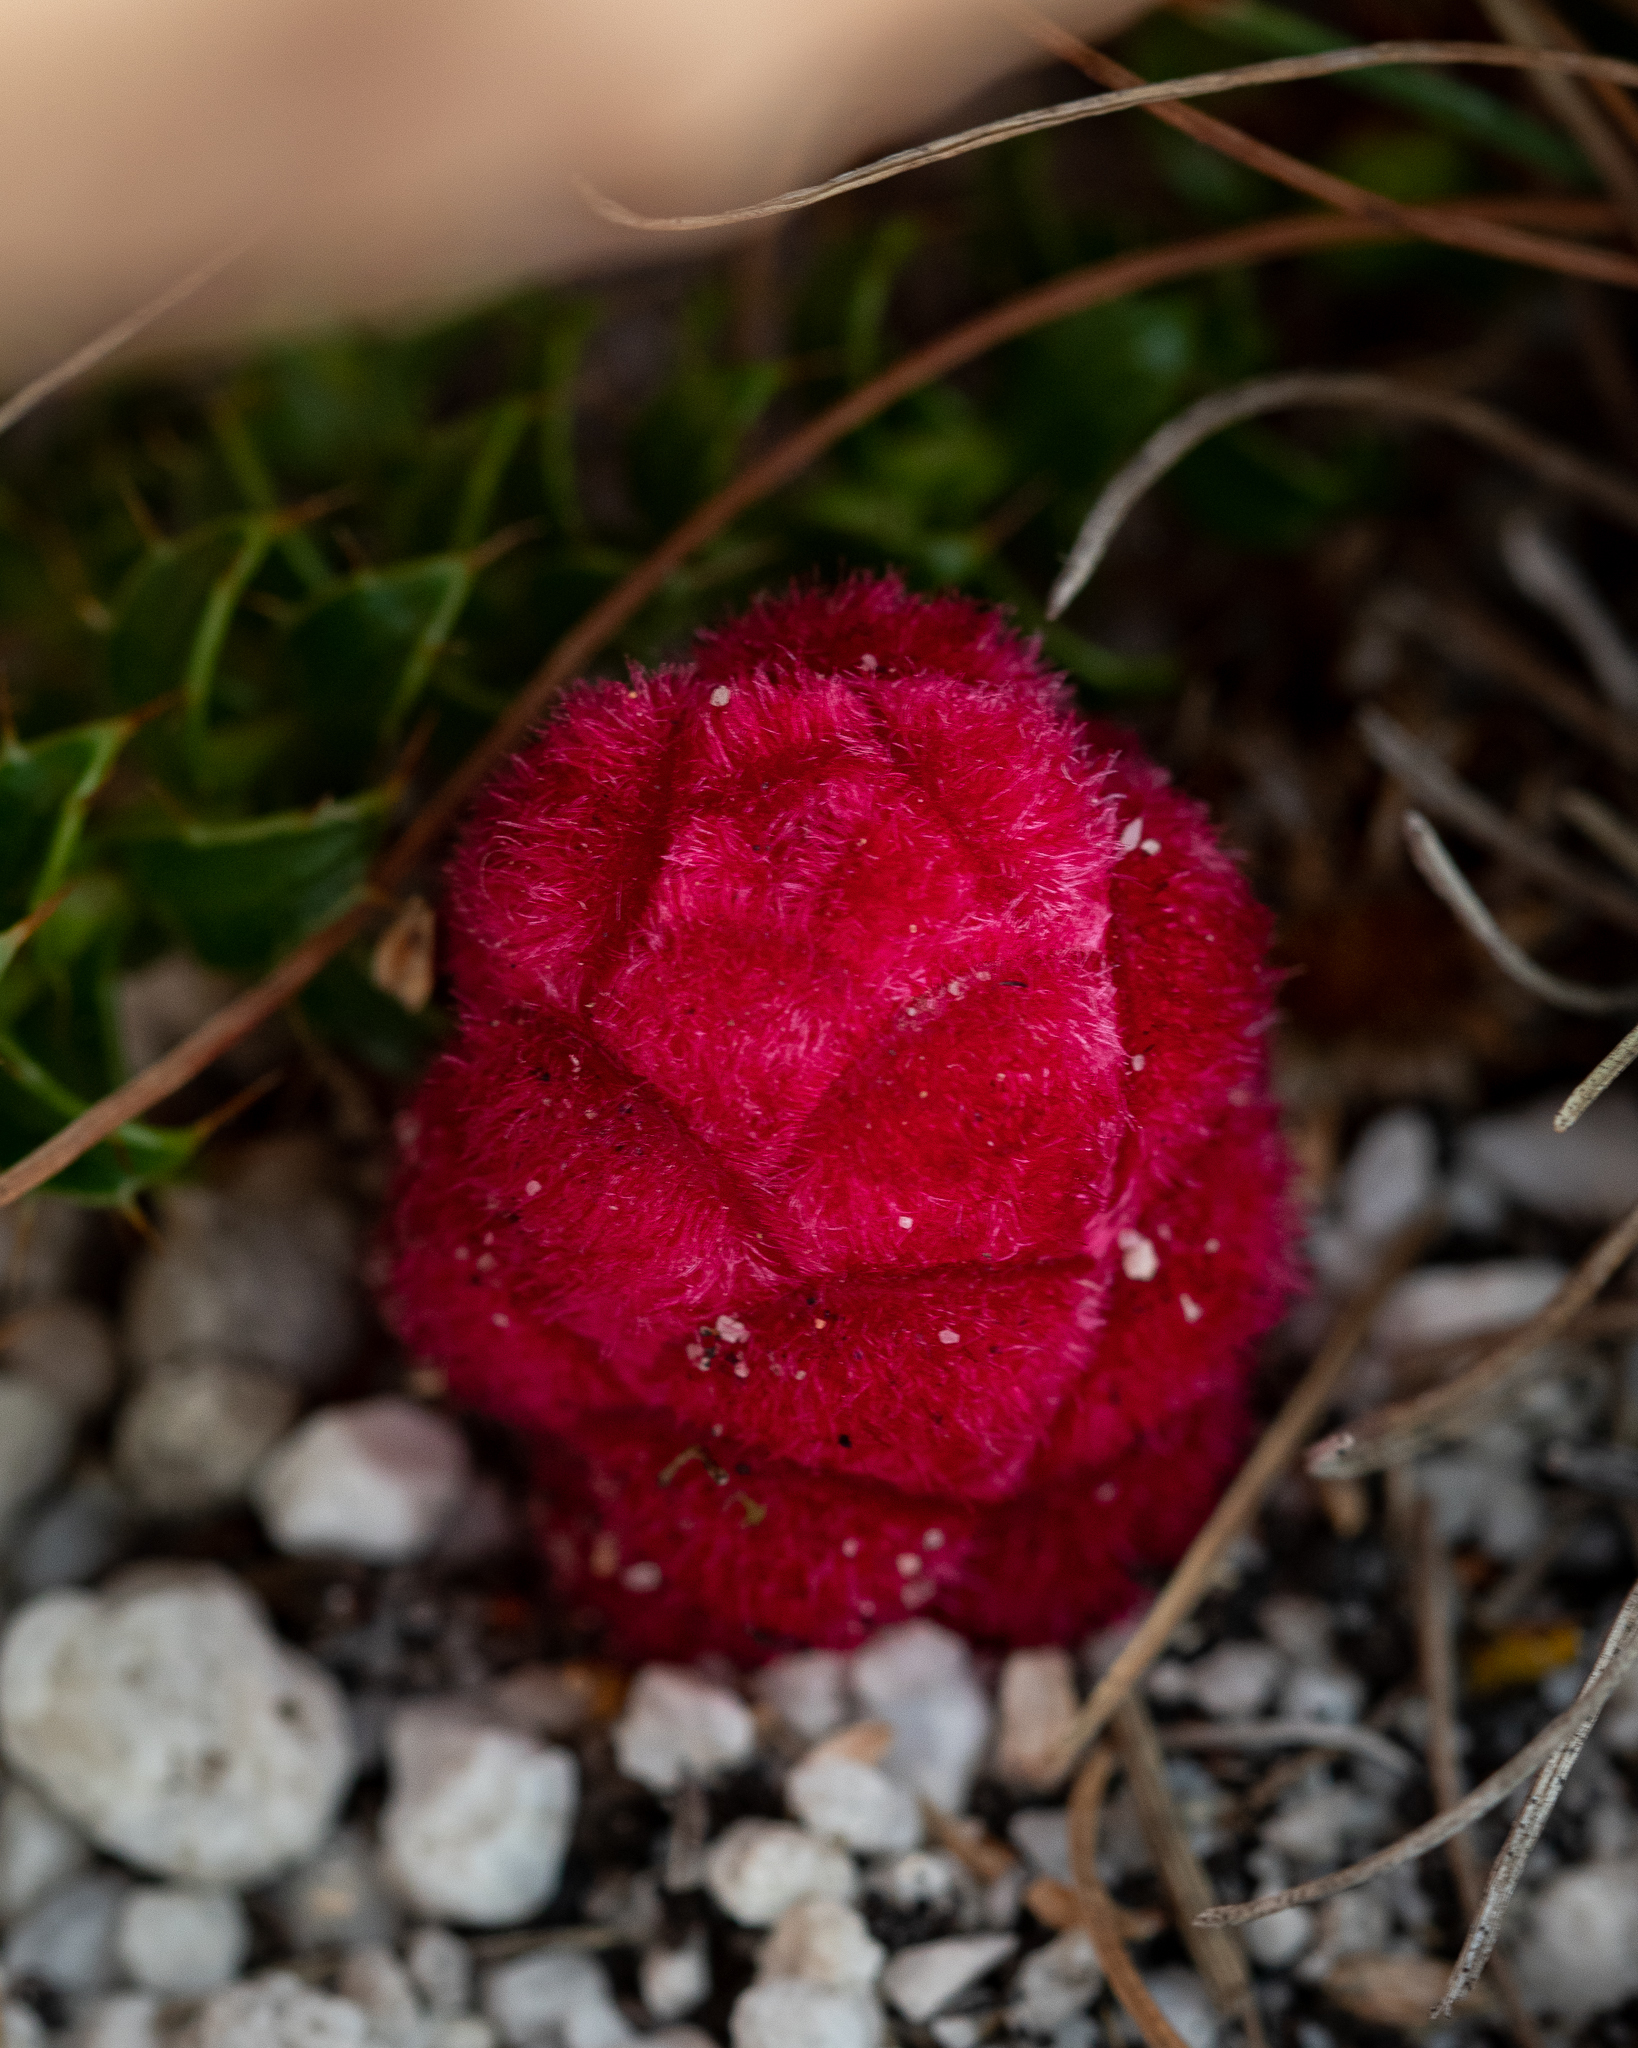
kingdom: Plantae
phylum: Tracheophyta
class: Magnoliopsida
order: Lamiales
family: Orobanchaceae
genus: Hyobanche
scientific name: Hyobanche sanguinea
